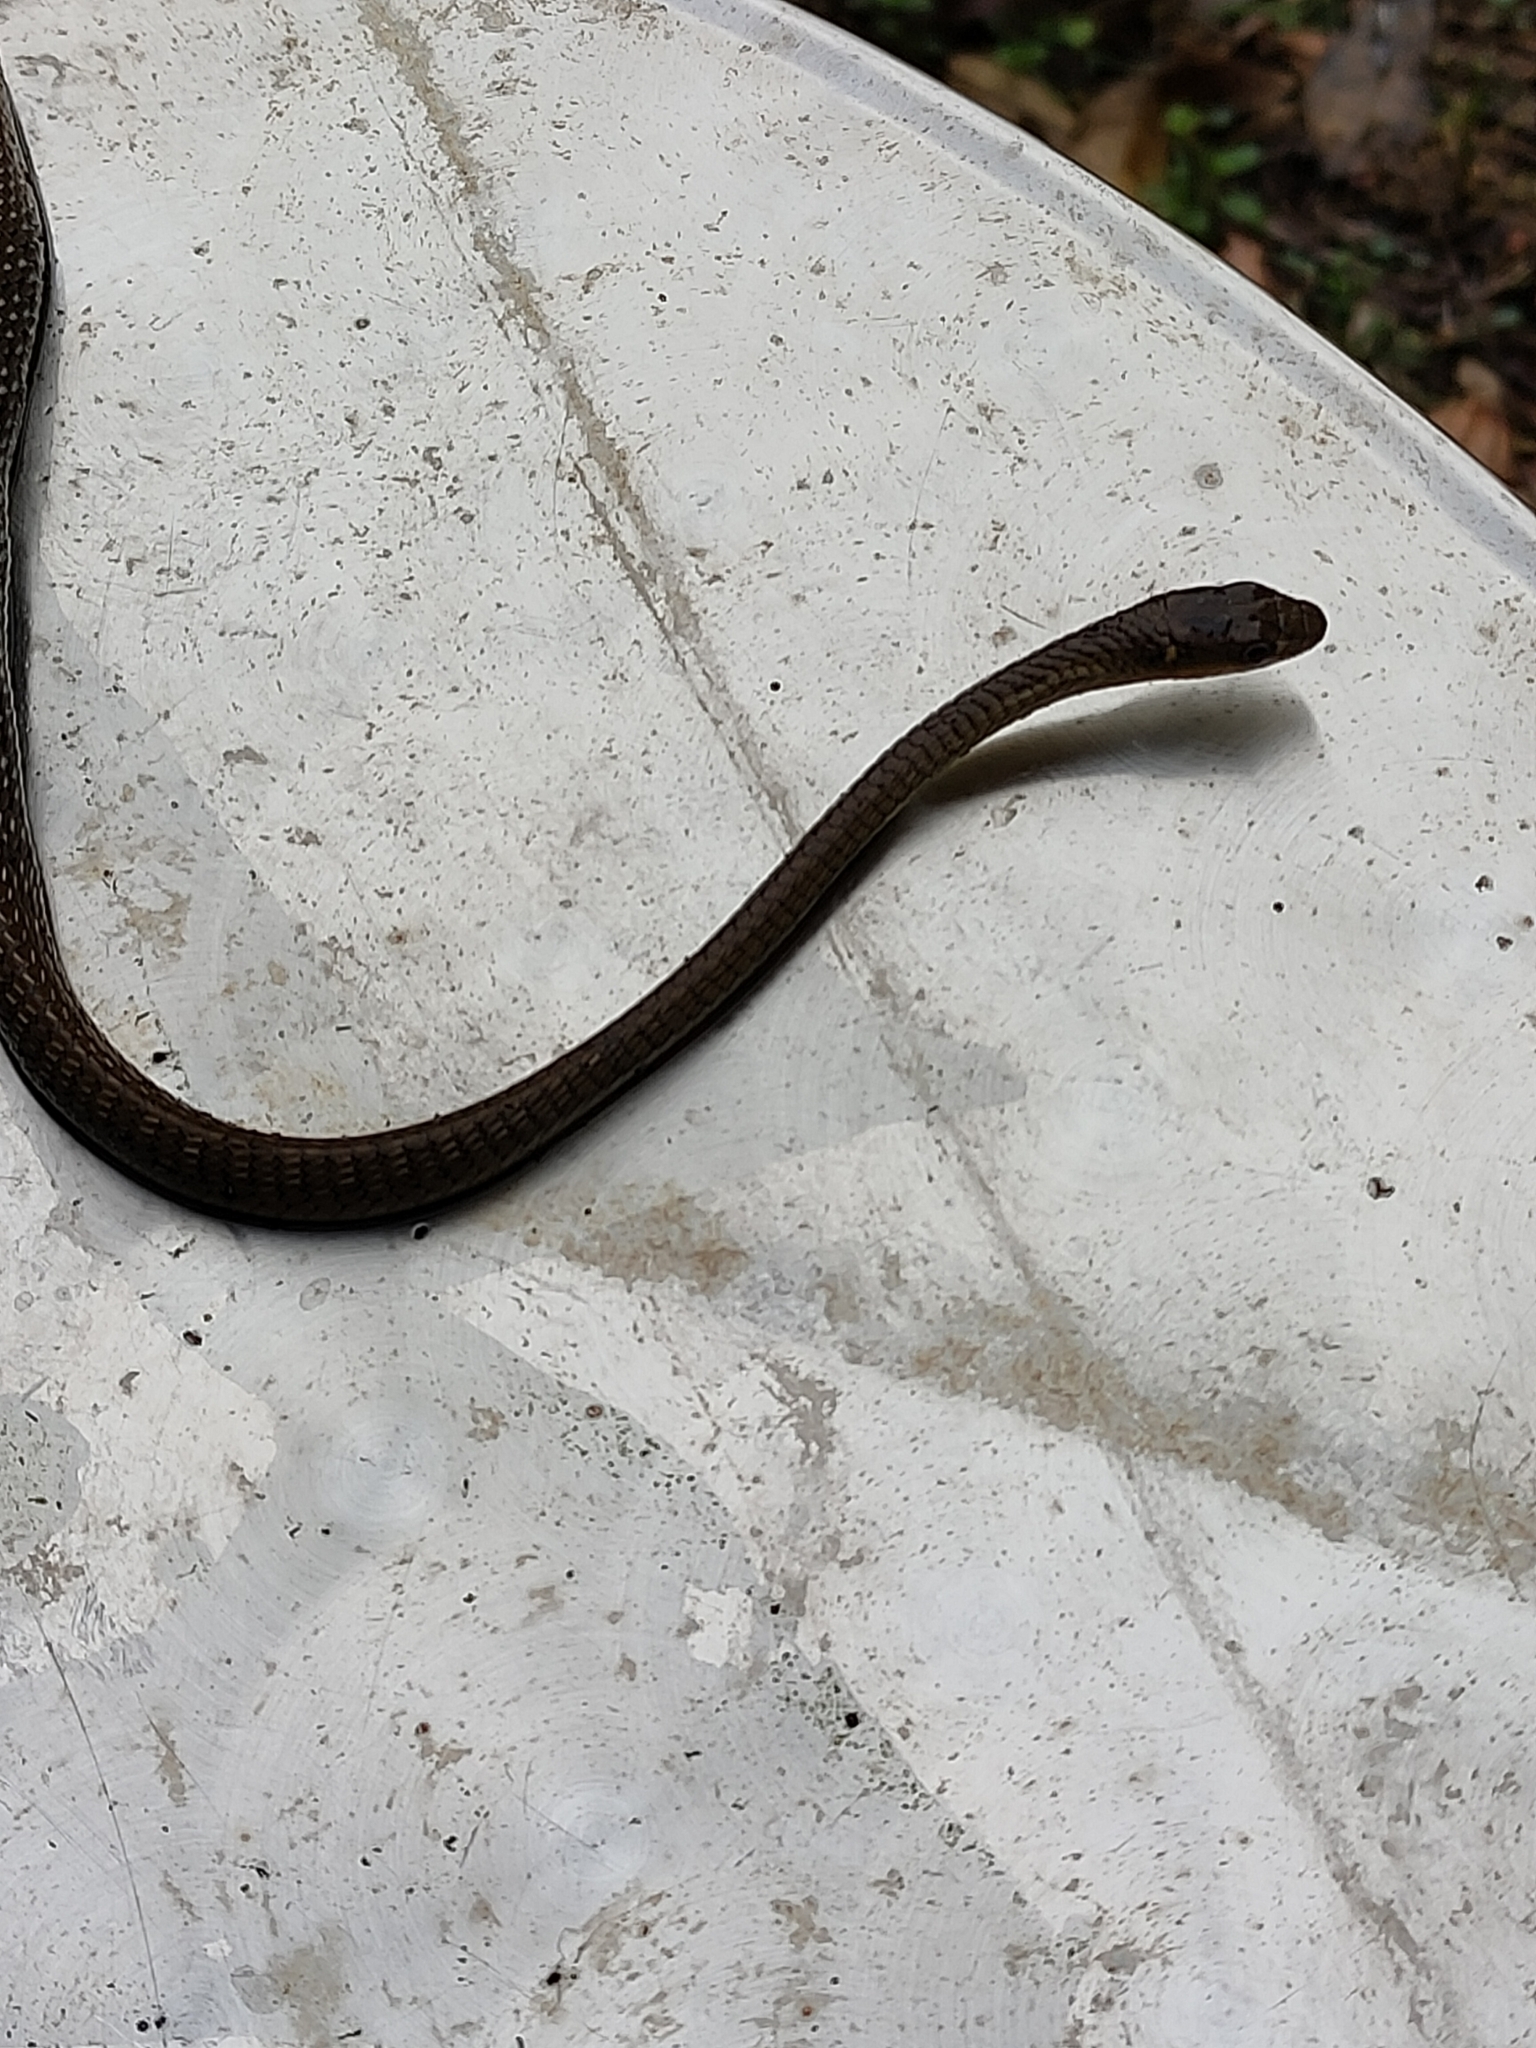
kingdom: Animalia
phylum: Chordata
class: Squamata
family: Colubridae
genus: Dendrelaphis
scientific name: Dendrelaphis punctulatus
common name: Common tree snake
